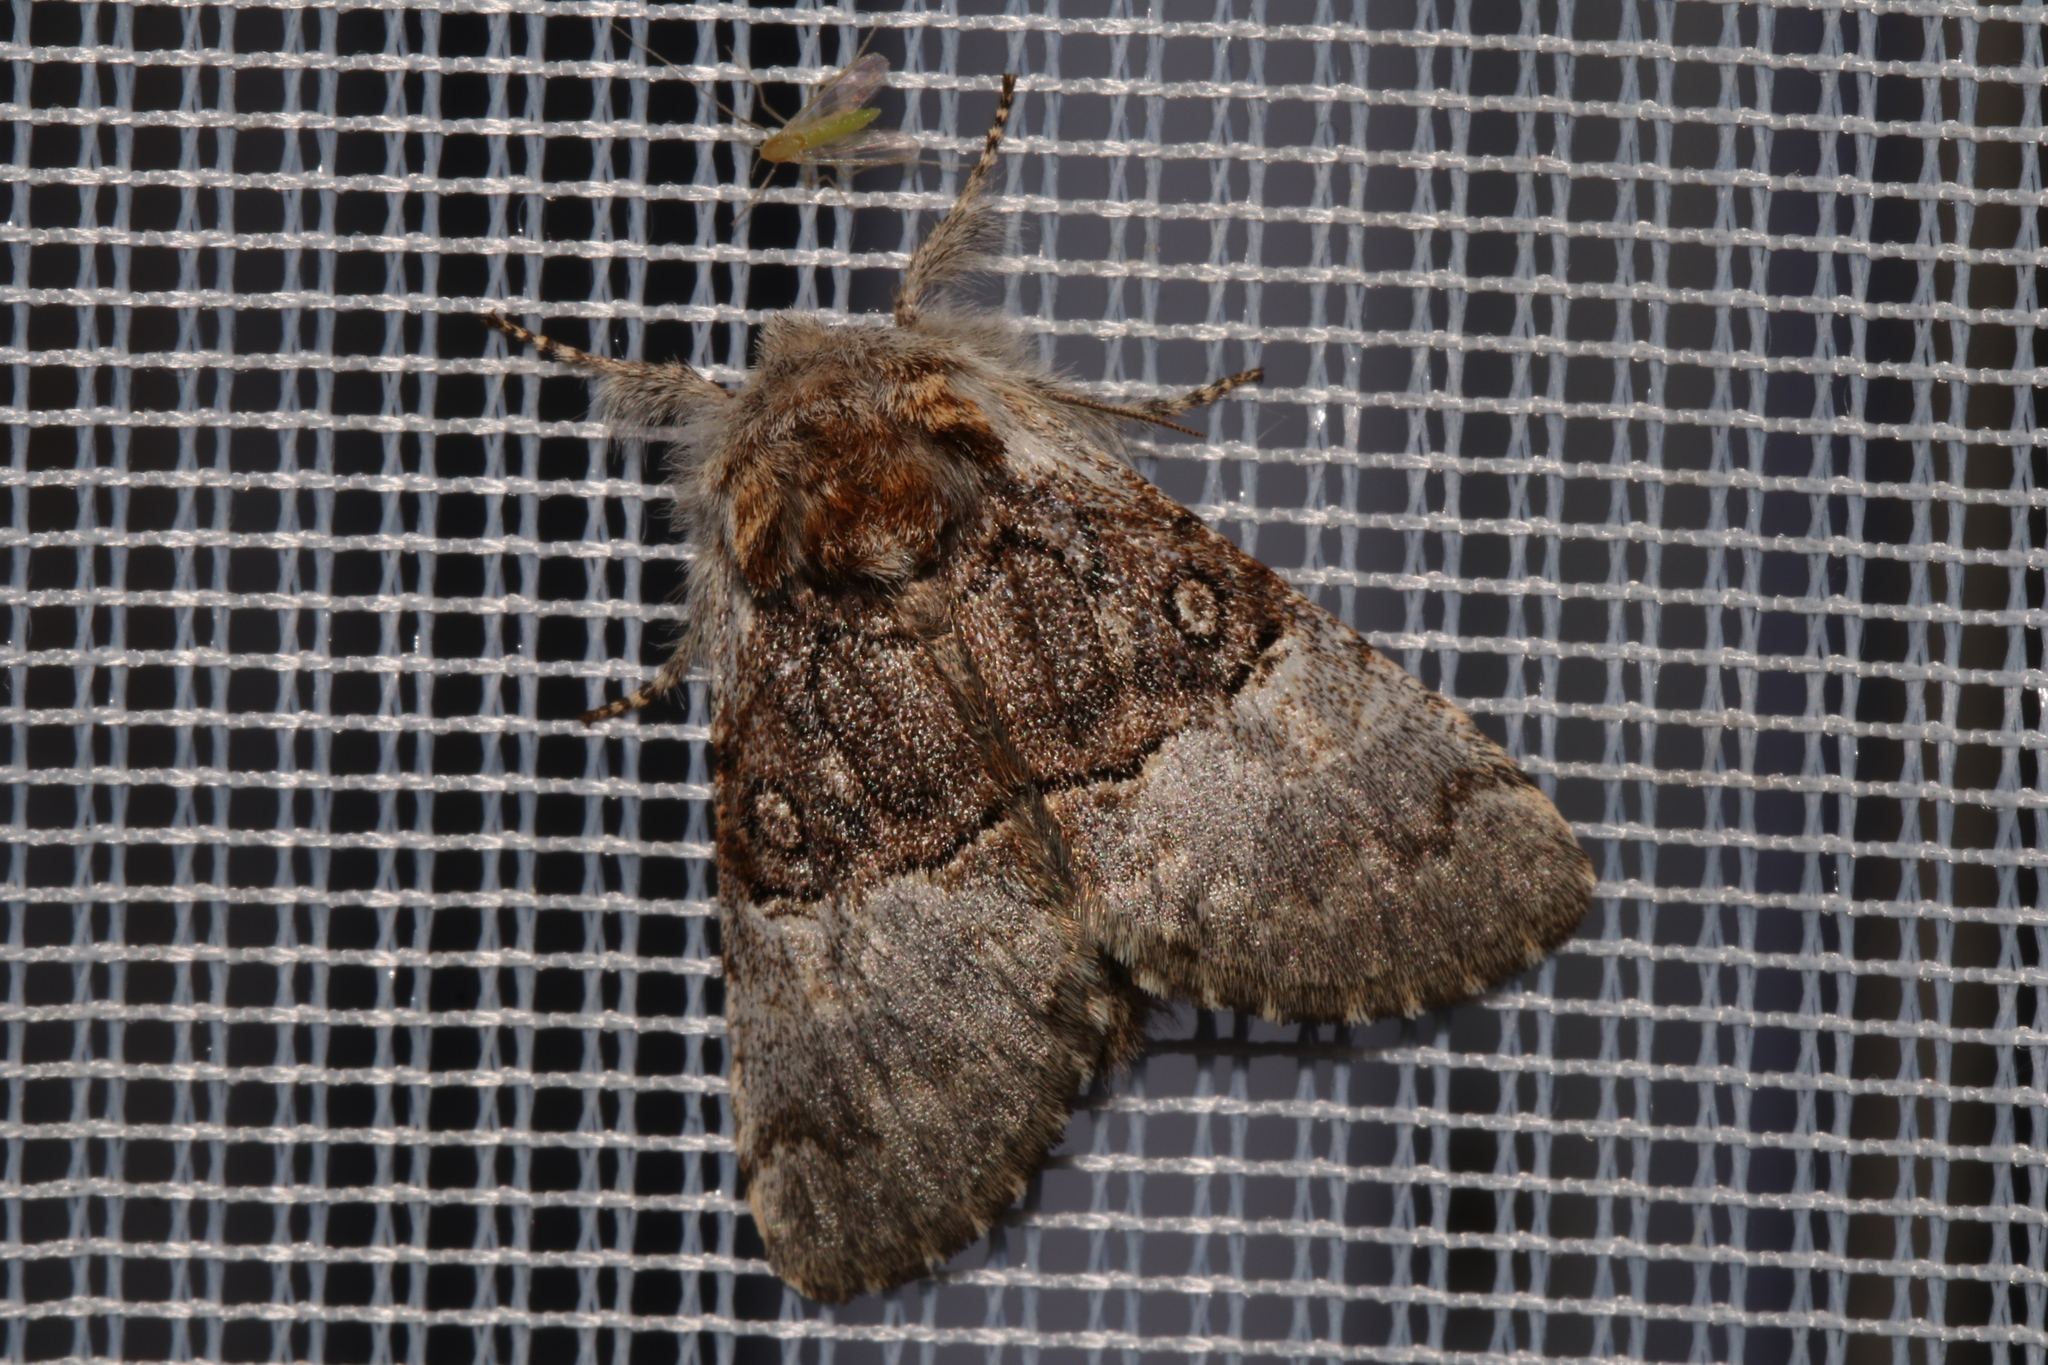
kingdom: Animalia
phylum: Arthropoda
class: Insecta
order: Lepidoptera
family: Noctuidae
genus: Colocasia
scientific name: Colocasia coryli
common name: Nut-tree tussock
